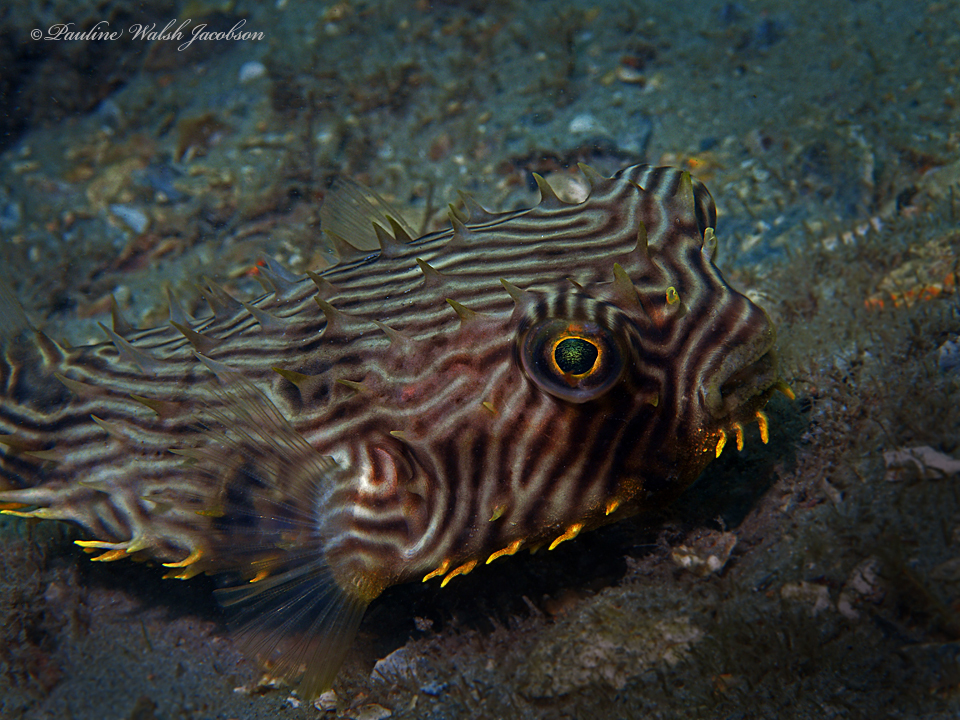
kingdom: Animalia
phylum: Chordata
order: Tetraodontiformes
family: Diodontidae
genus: Chilomycterus
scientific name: Chilomycterus schoepfii
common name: Striped burrfish
